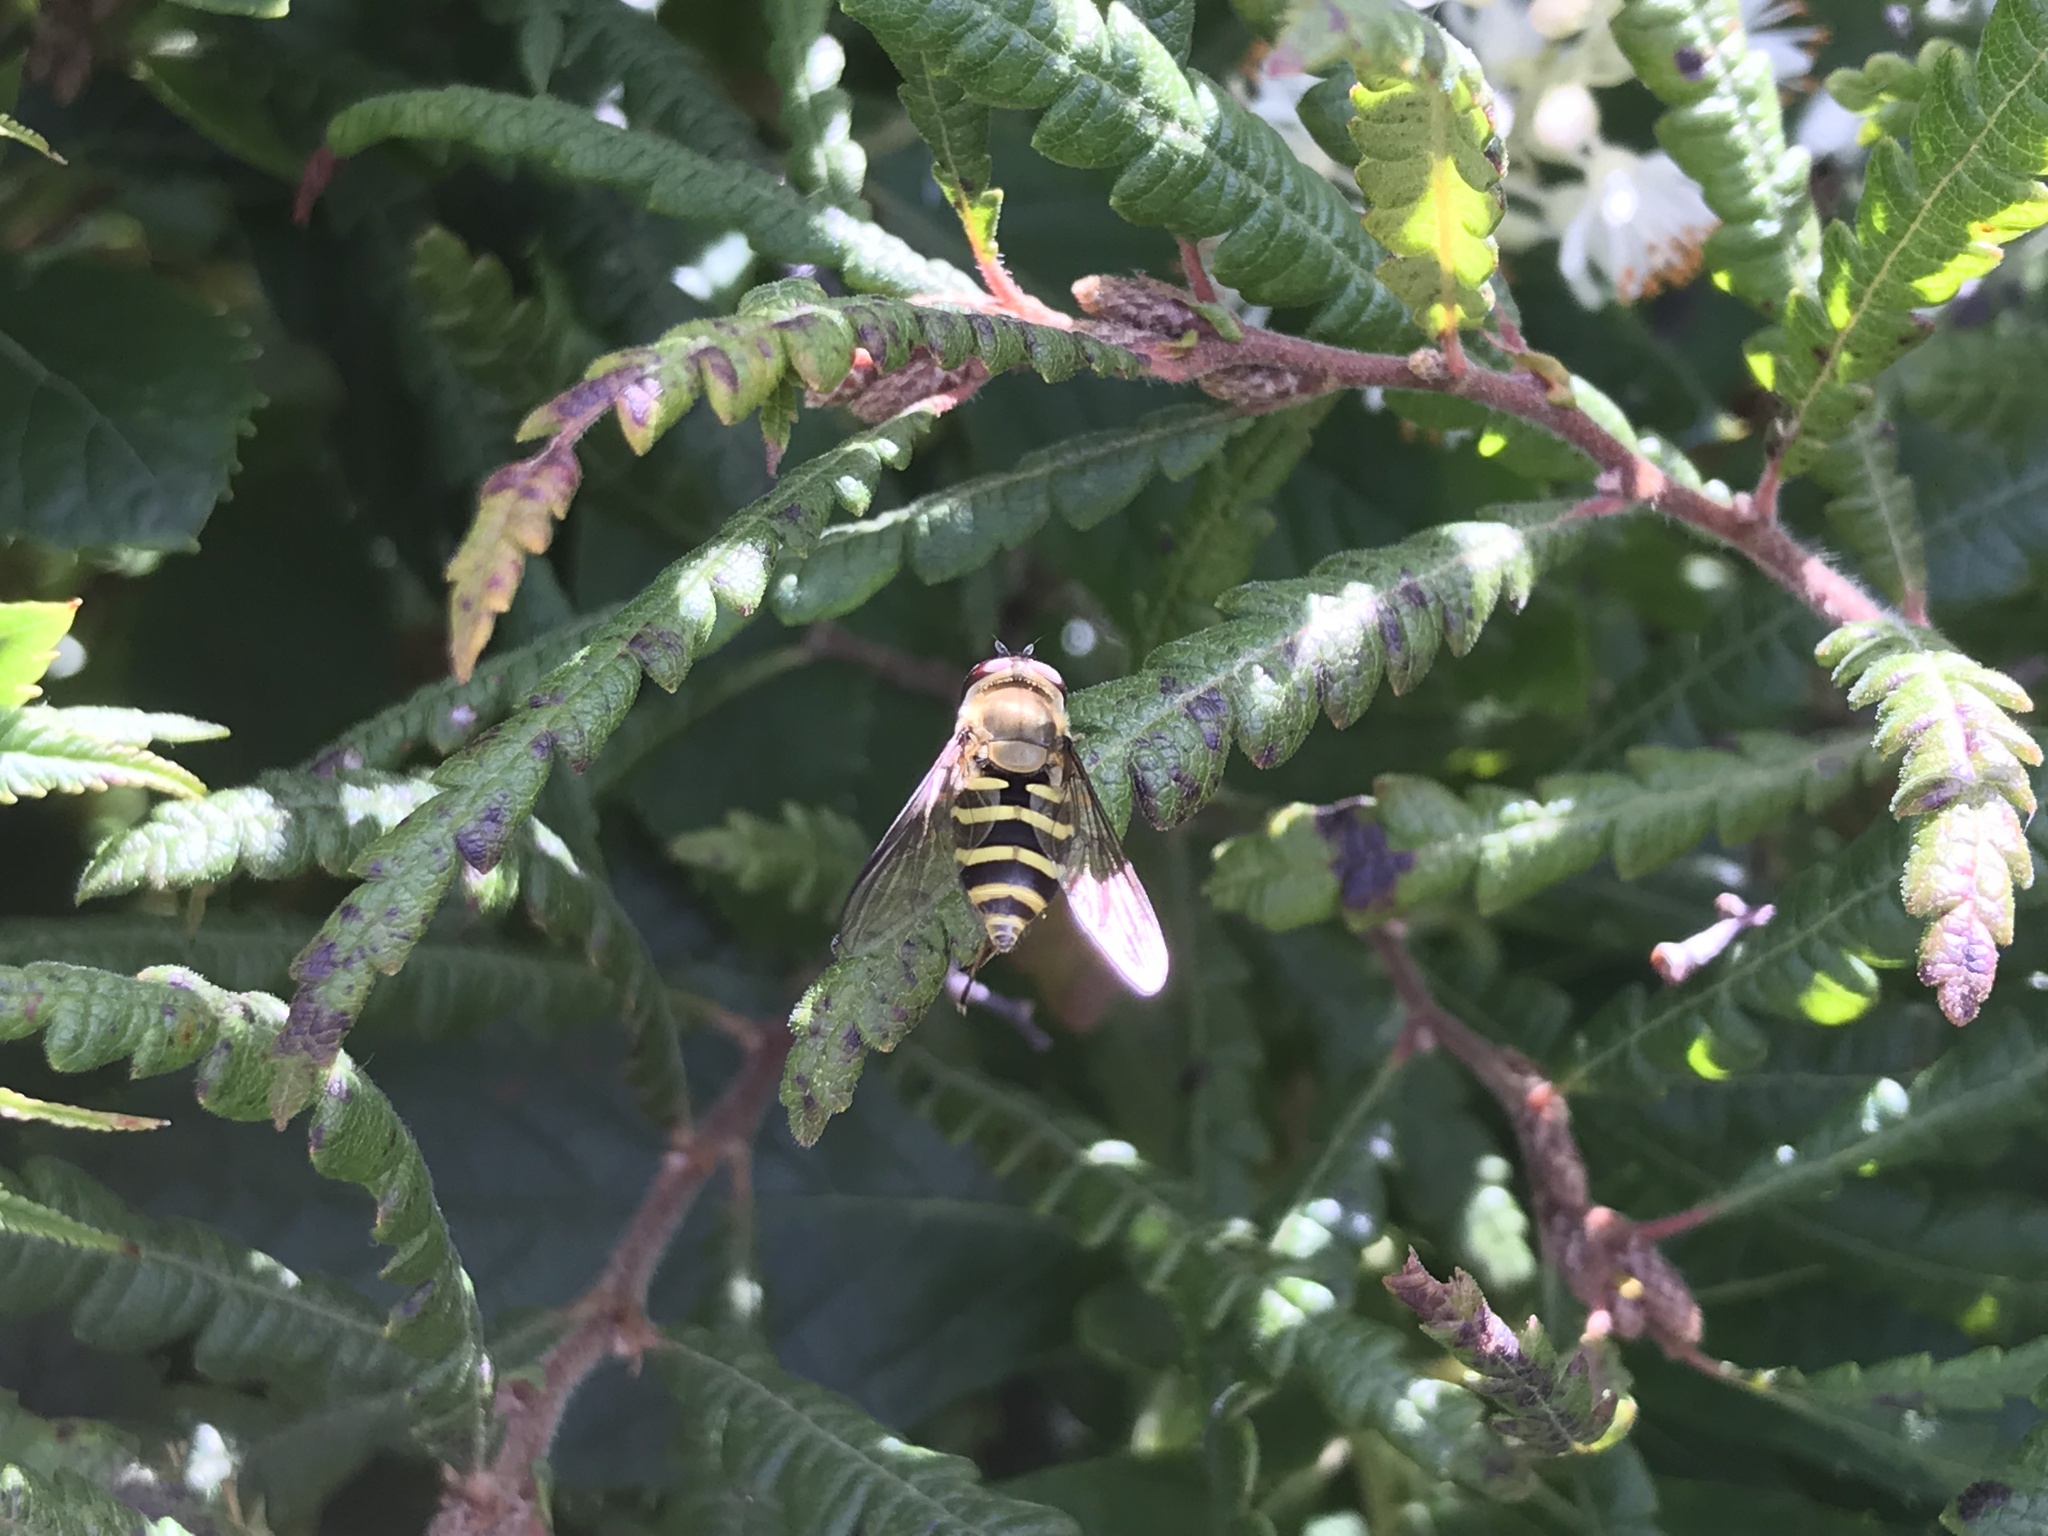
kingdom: Animalia
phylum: Arthropoda
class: Insecta
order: Diptera
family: Syrphidae
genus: Syrphus
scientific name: Syrphus
